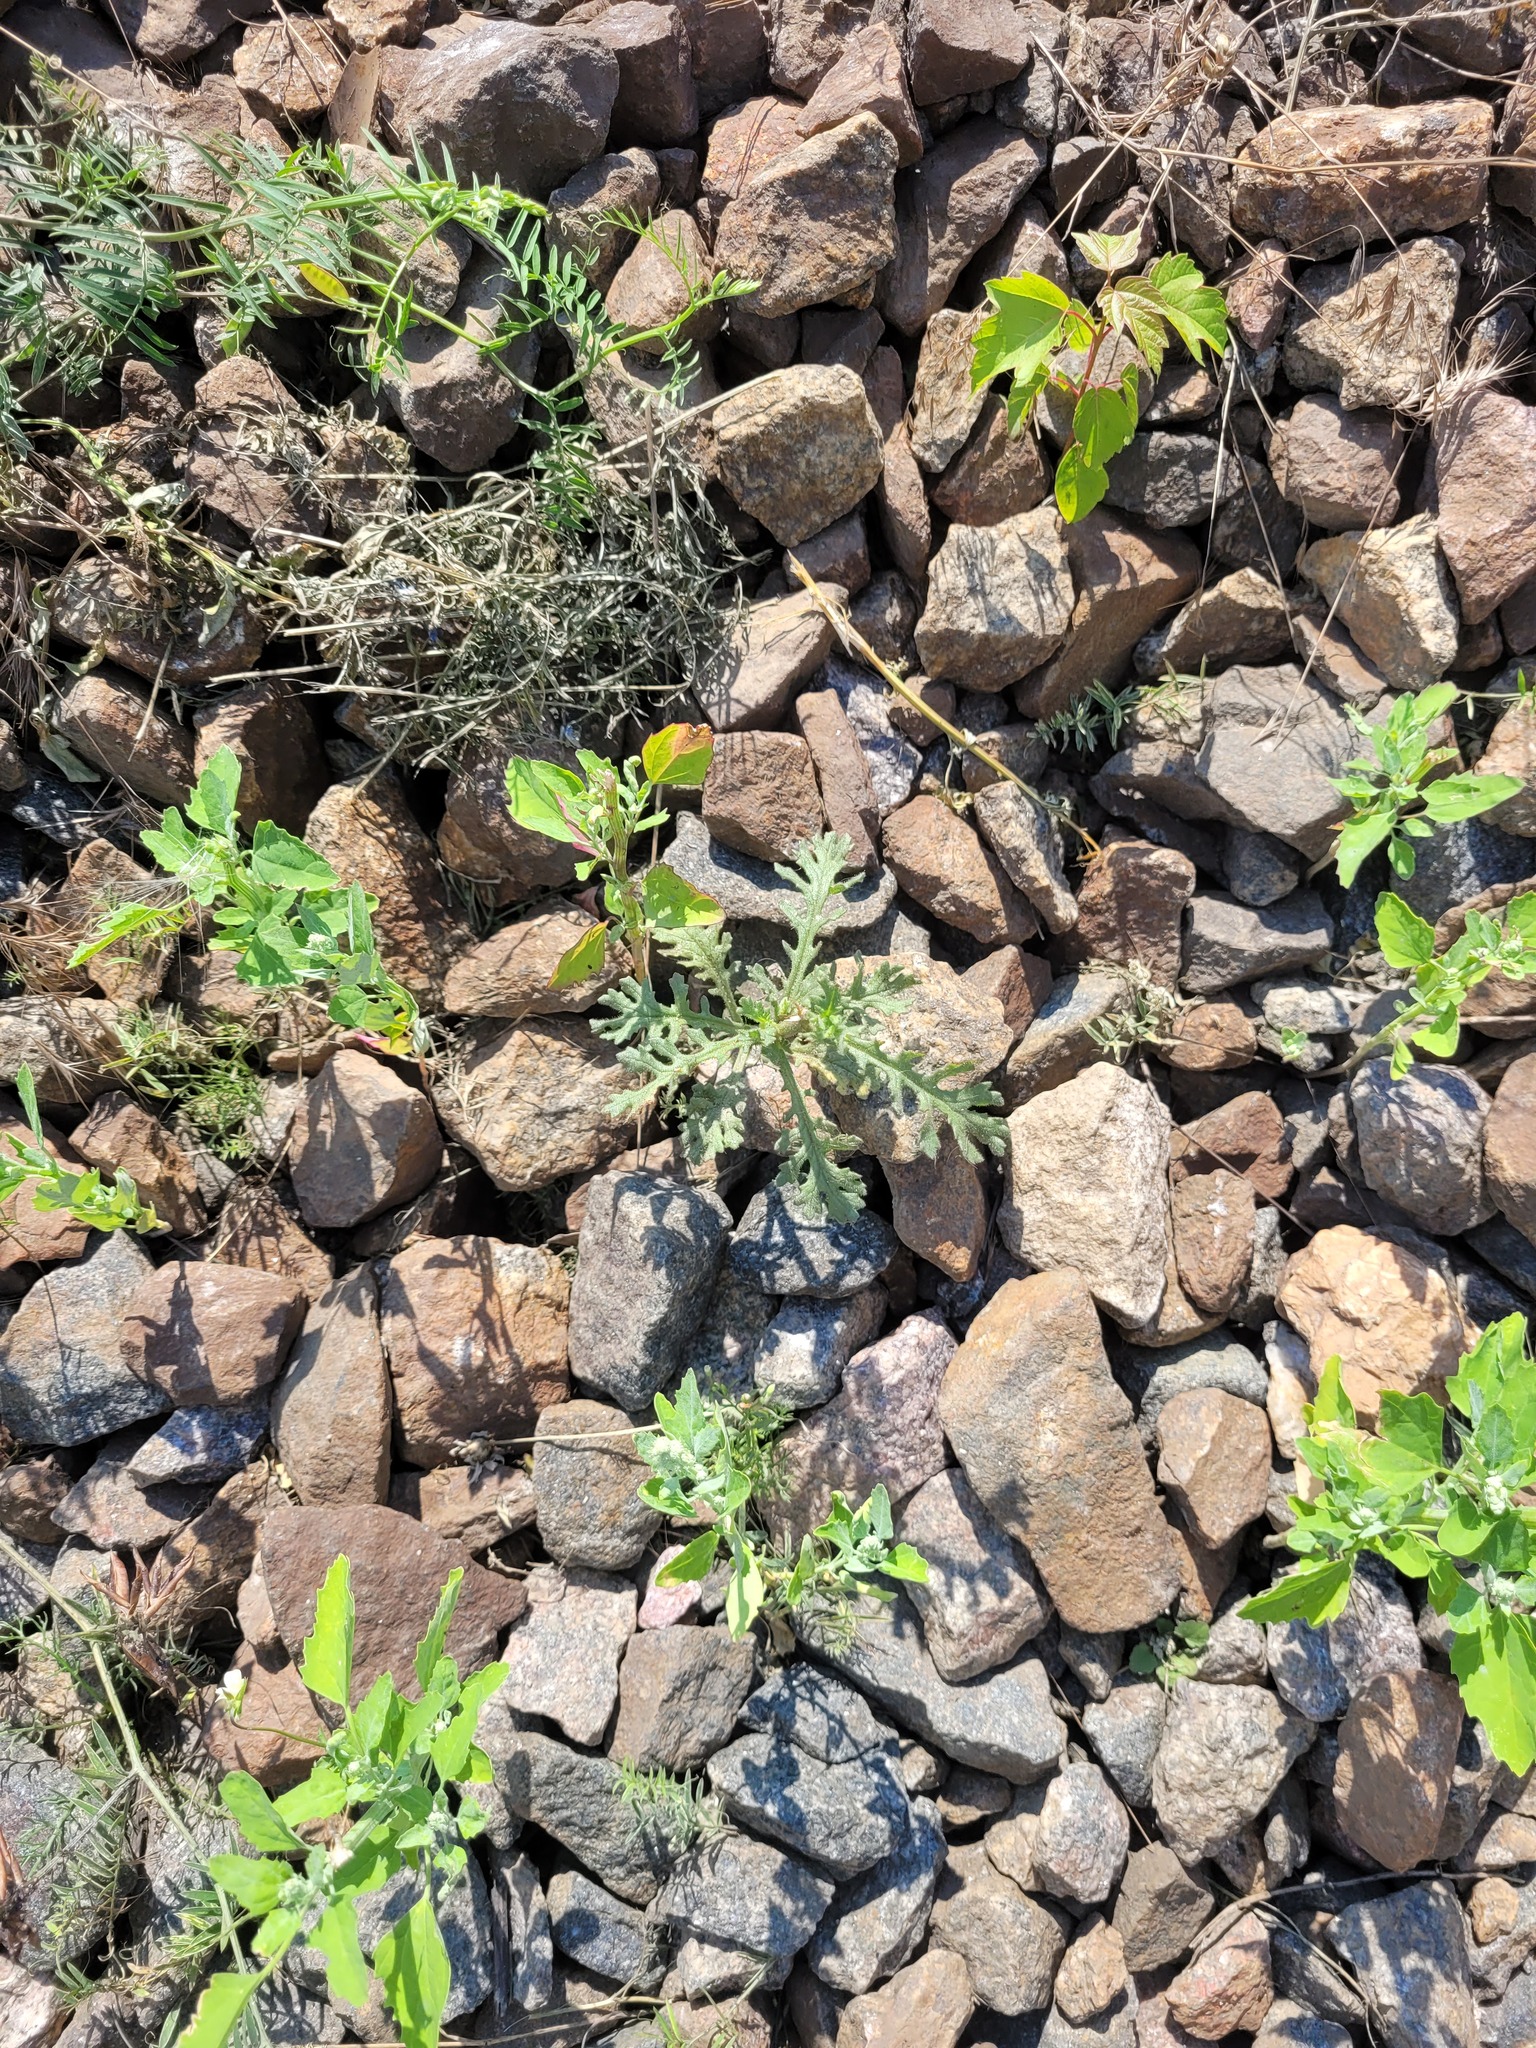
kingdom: Plantae
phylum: Tracheophyta
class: Magnoliopsida
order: Asterales
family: Asteraceae
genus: Senecio
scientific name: Senecio viscosus
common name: Sticky groundsel
